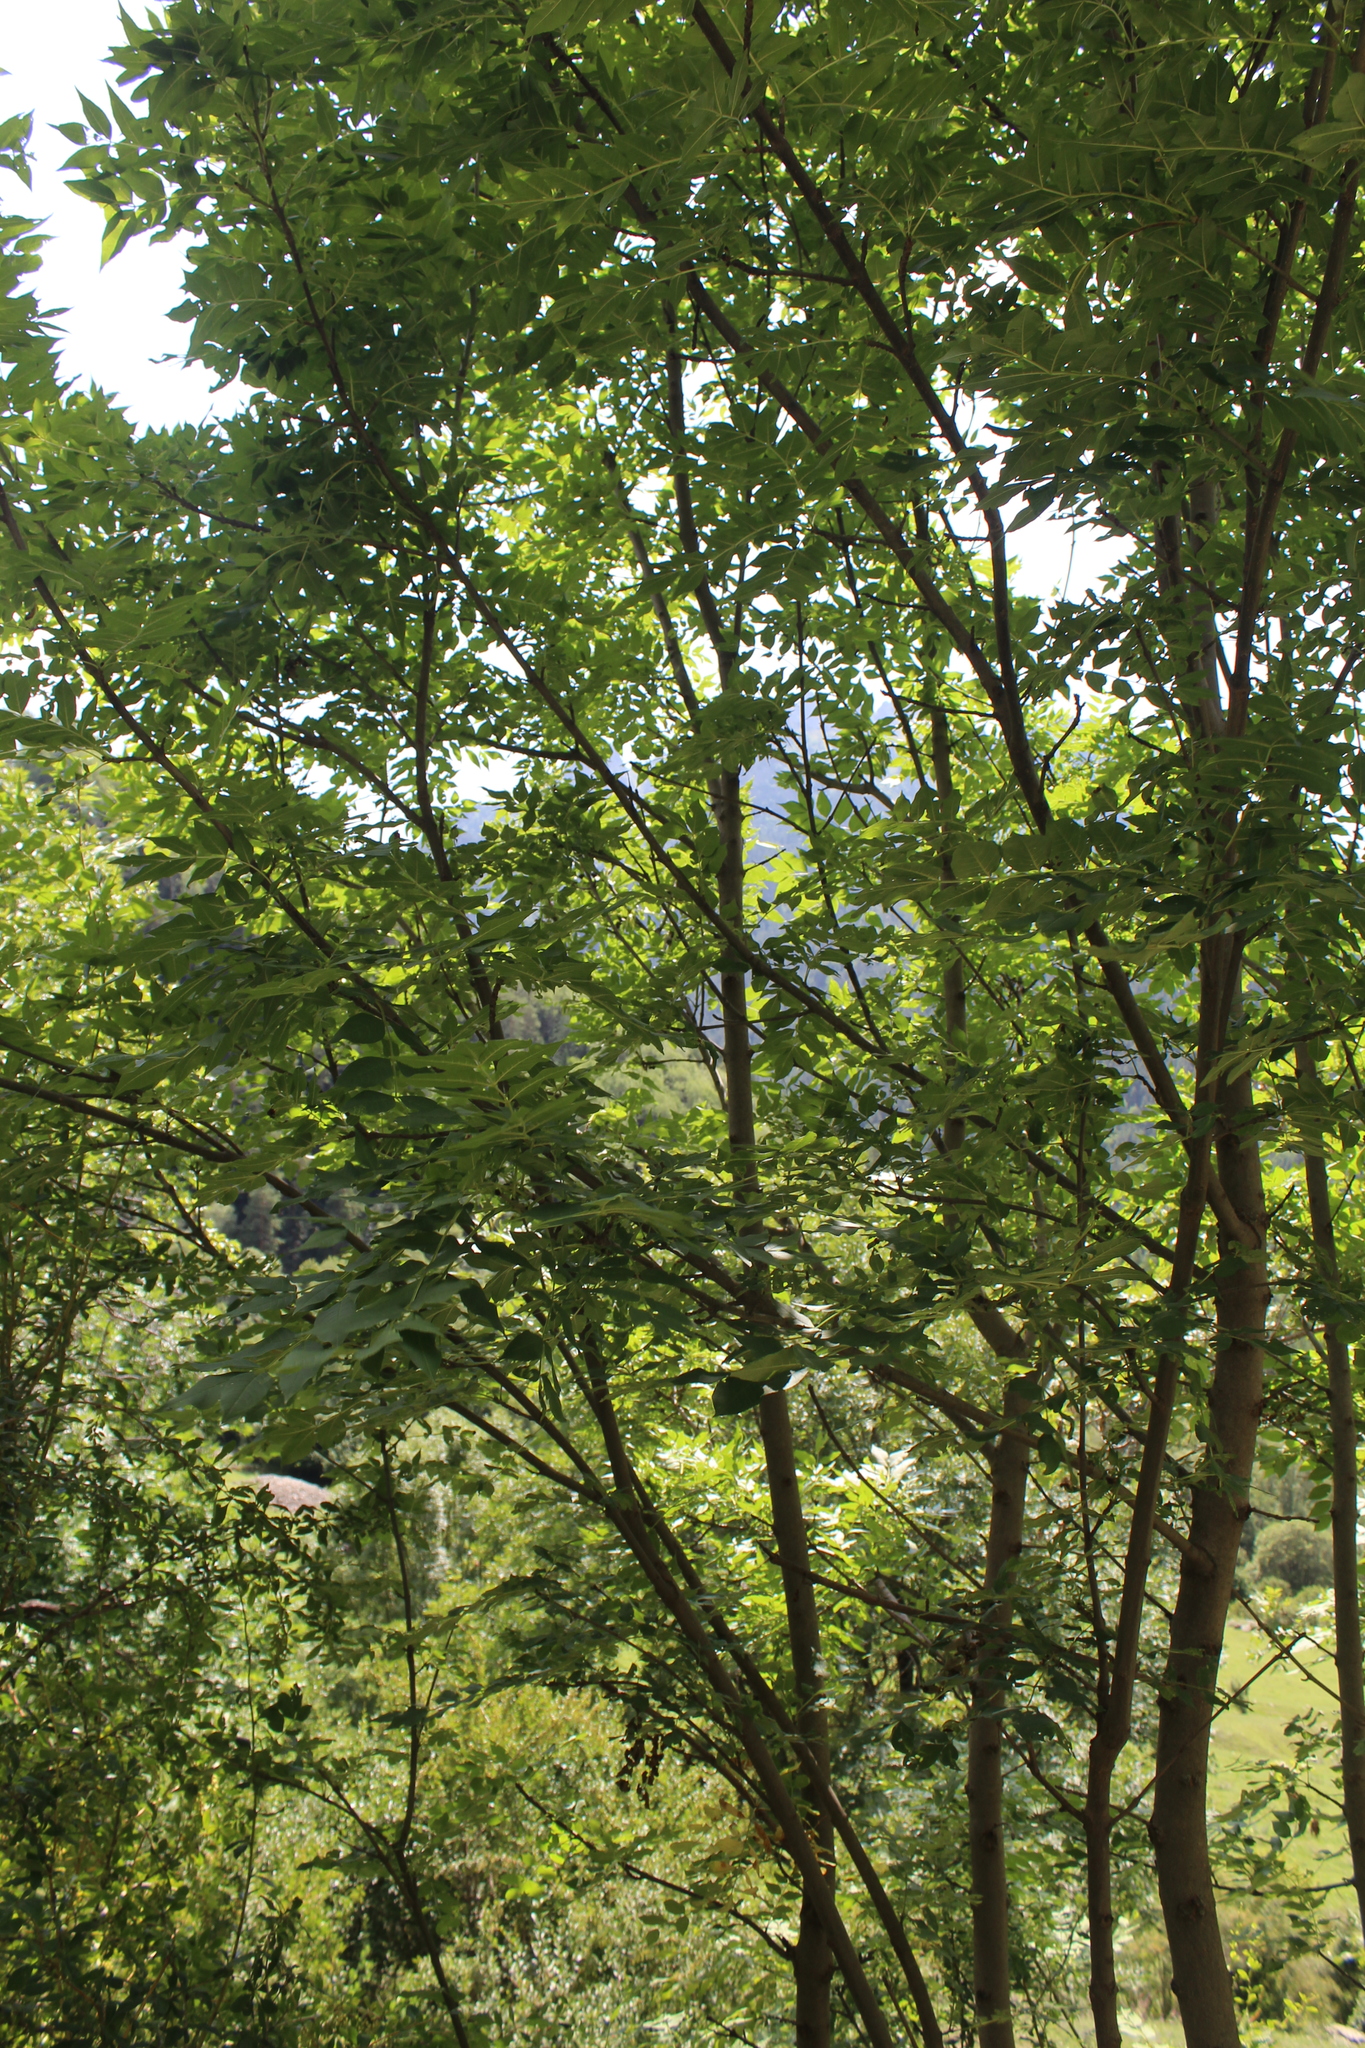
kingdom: Plantae
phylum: Tracheophyta
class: Magnoliopsida
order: Lamiales
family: Oleaceae
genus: Fraxinus
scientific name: Fraxinus excelsior
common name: European ash
